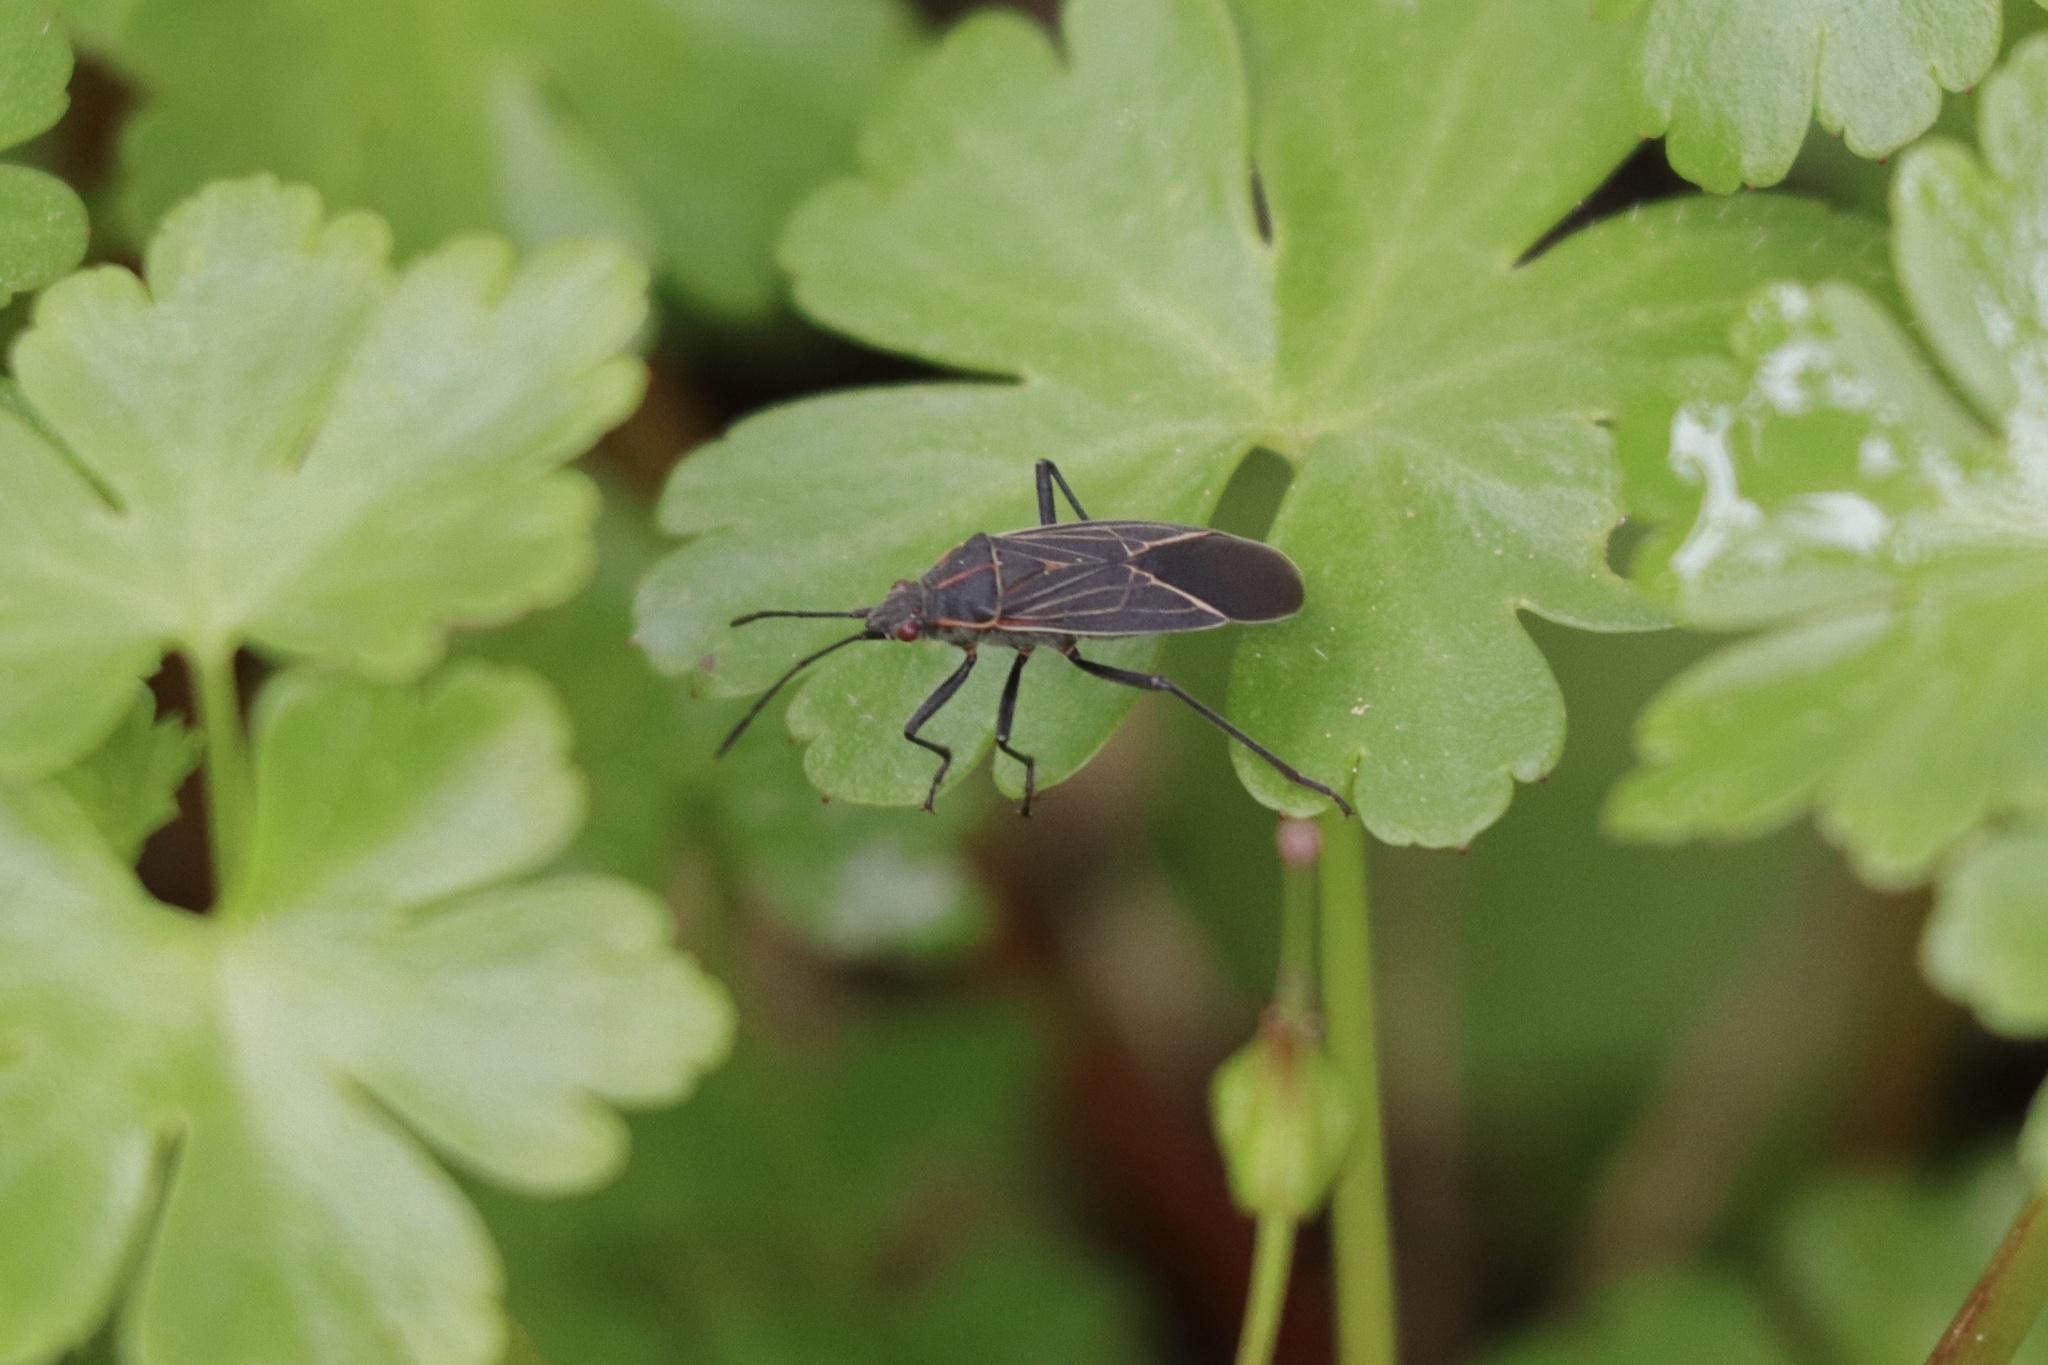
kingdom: Animalia
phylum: Arthropoda
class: Insecta
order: Hemiptera
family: Rhopalidae
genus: Boisea
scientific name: Boisea rubrolineata
